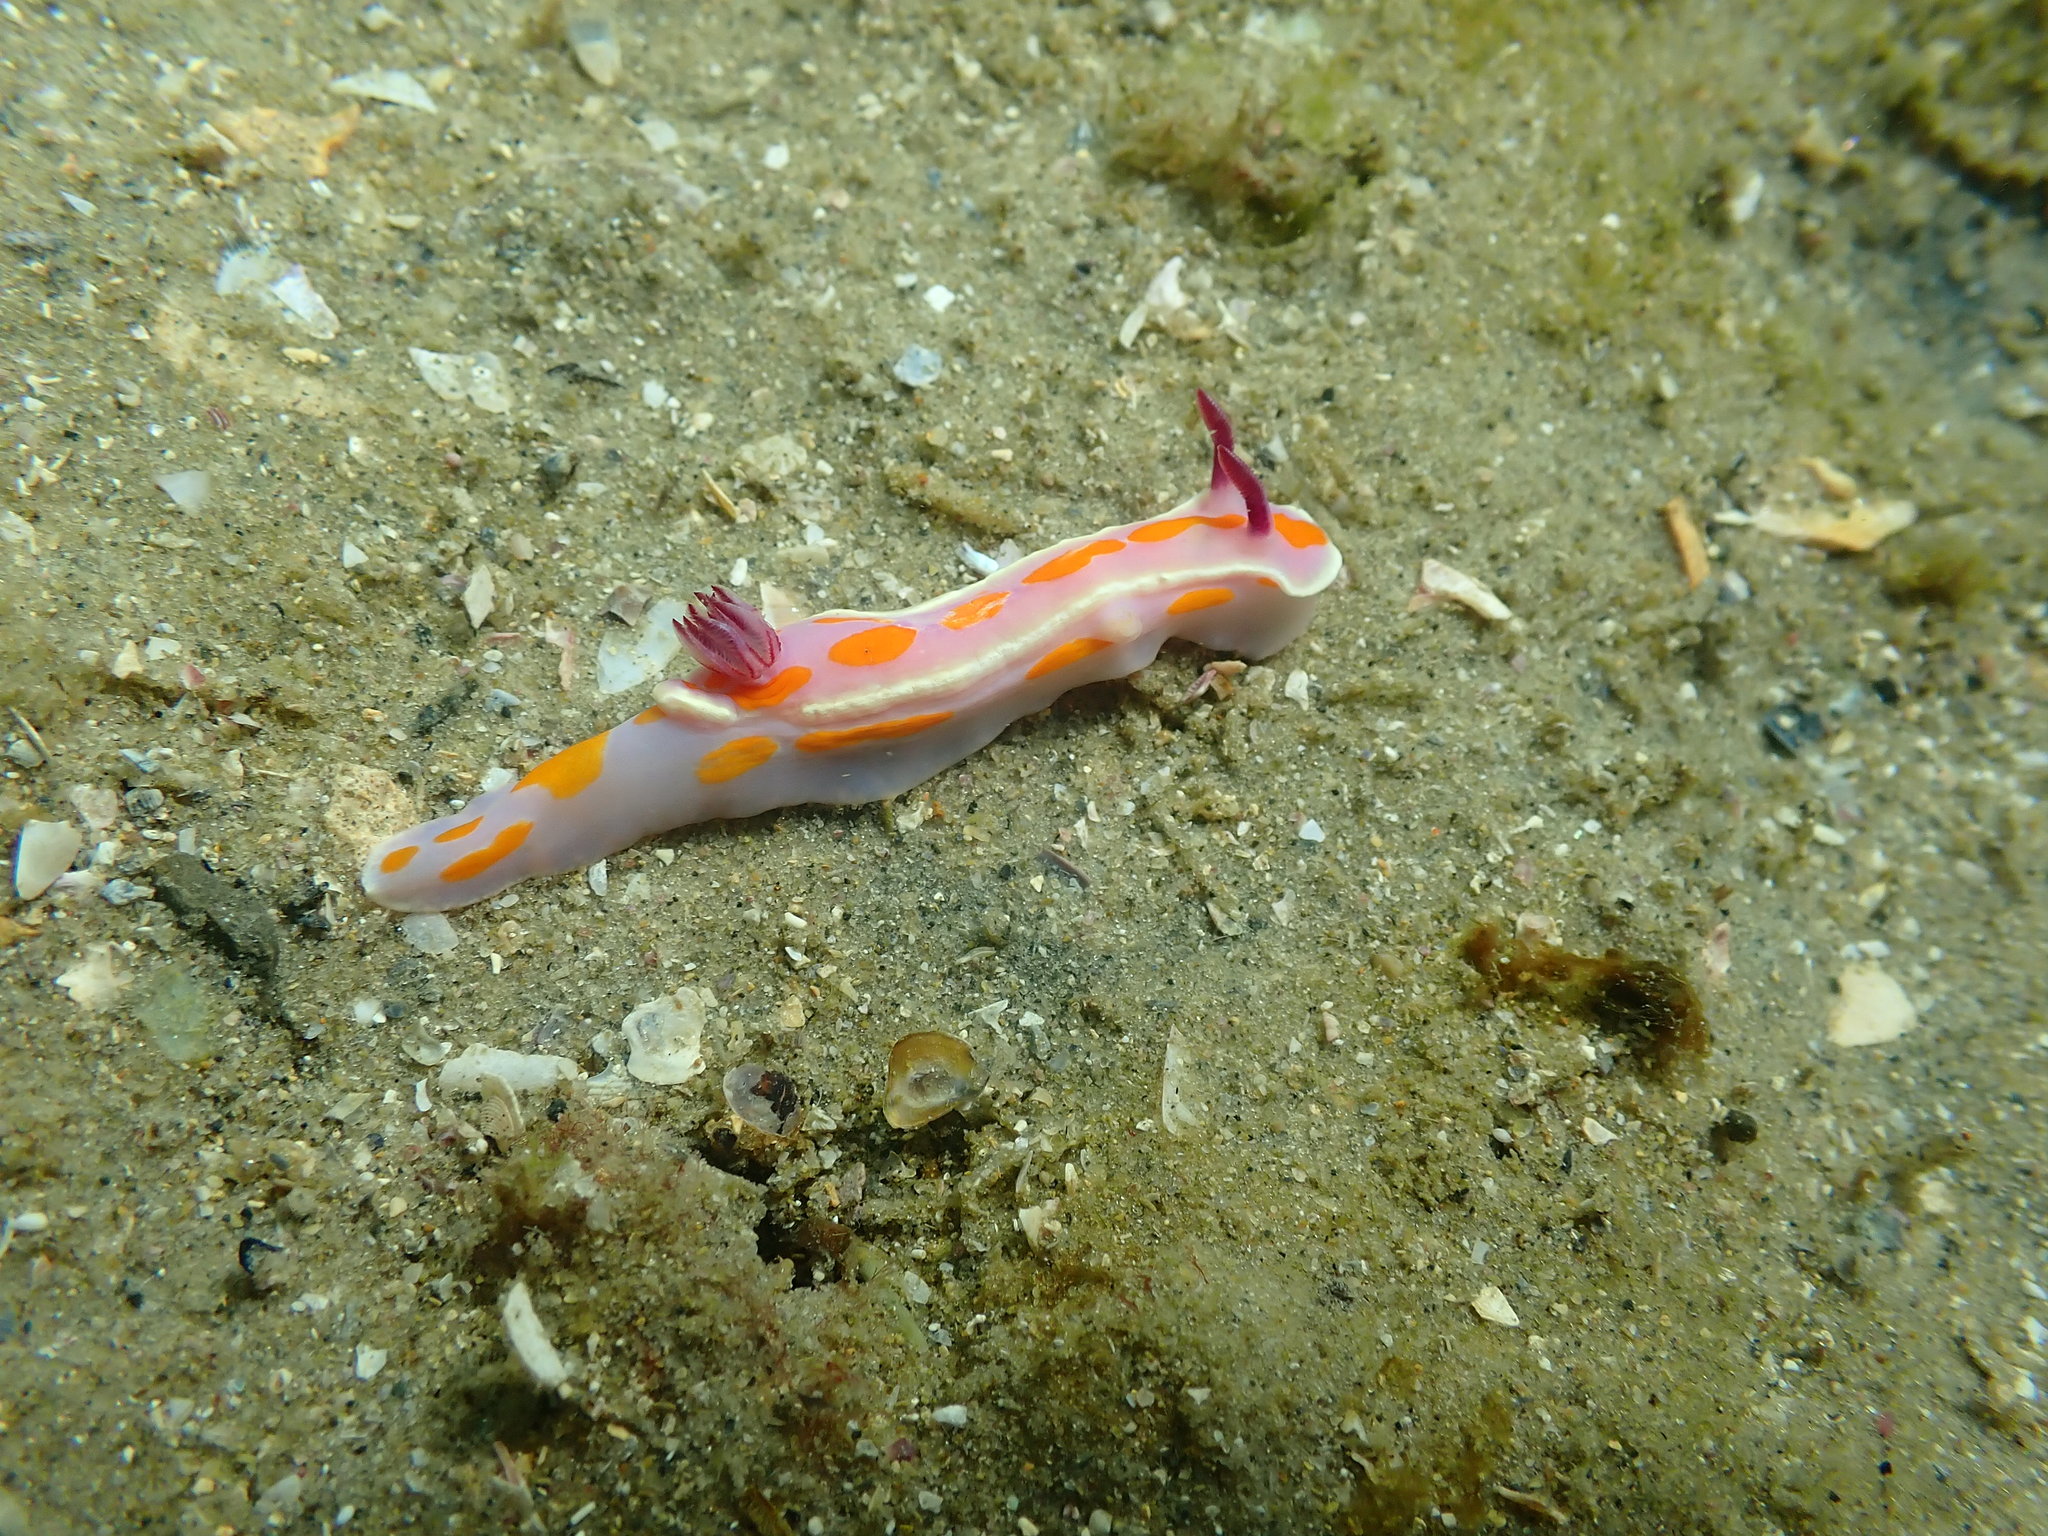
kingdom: Animalia
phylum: Mollusca
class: Gastropoda
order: Nudibranchia
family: Chromodorididae
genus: Ceratosoma
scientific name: Ceratosoma amoenum
